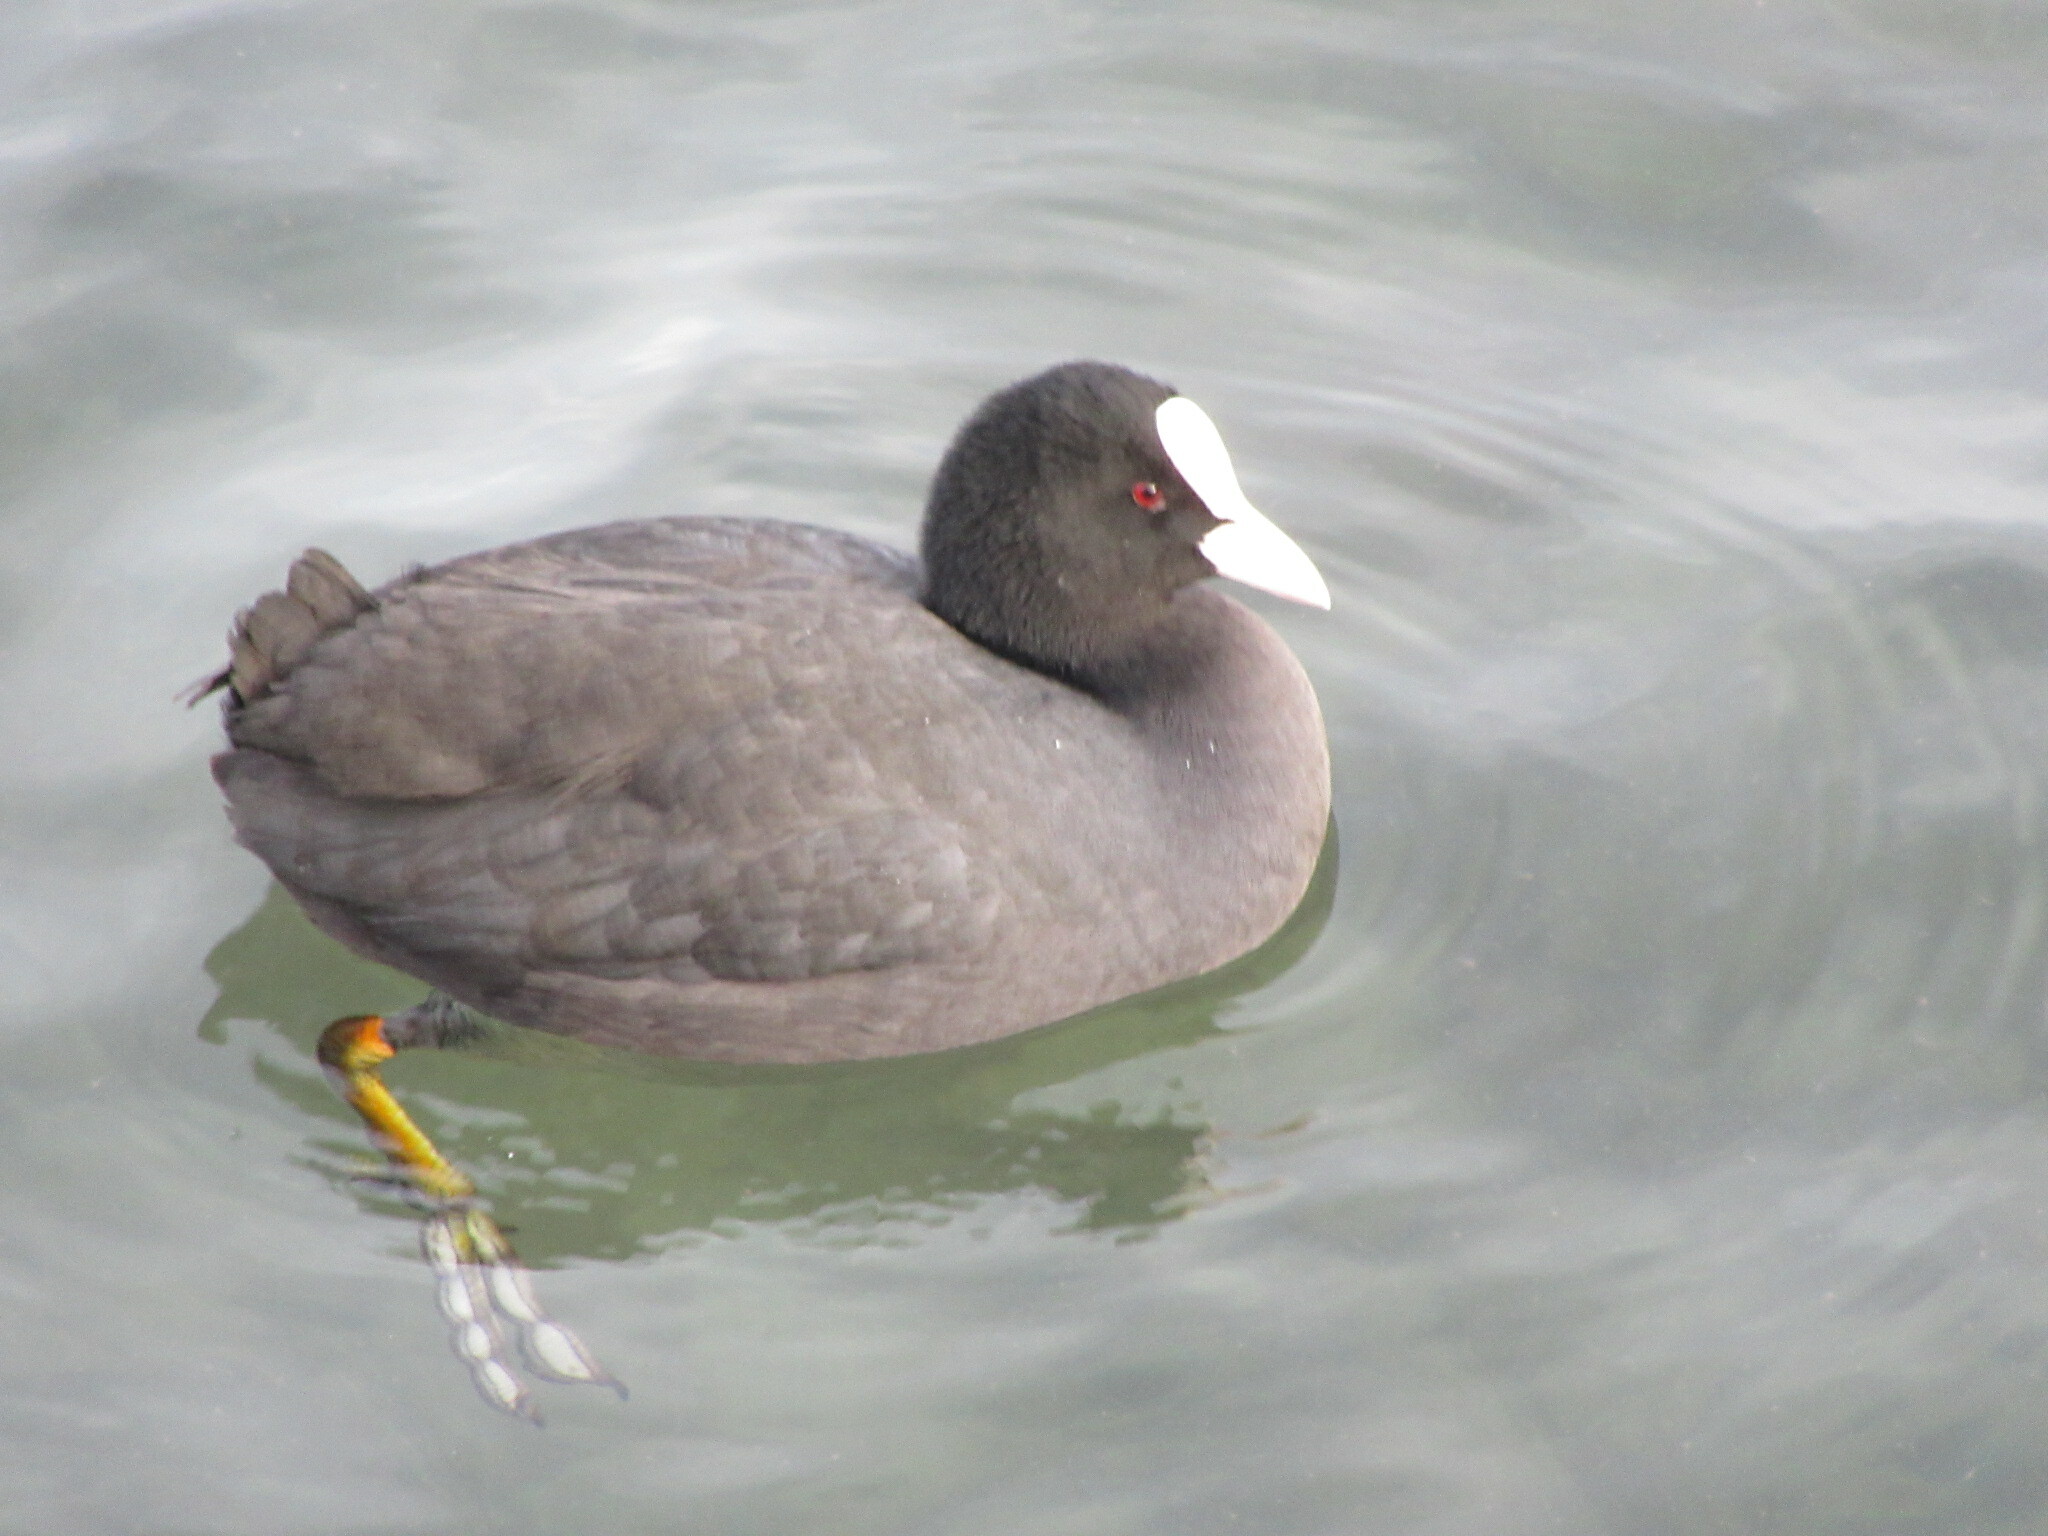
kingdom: Animalia
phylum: Chordata
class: Aves
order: Gruiformes
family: Rallidae
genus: Fulica
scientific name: Fulica atra
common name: Eurasian coot
